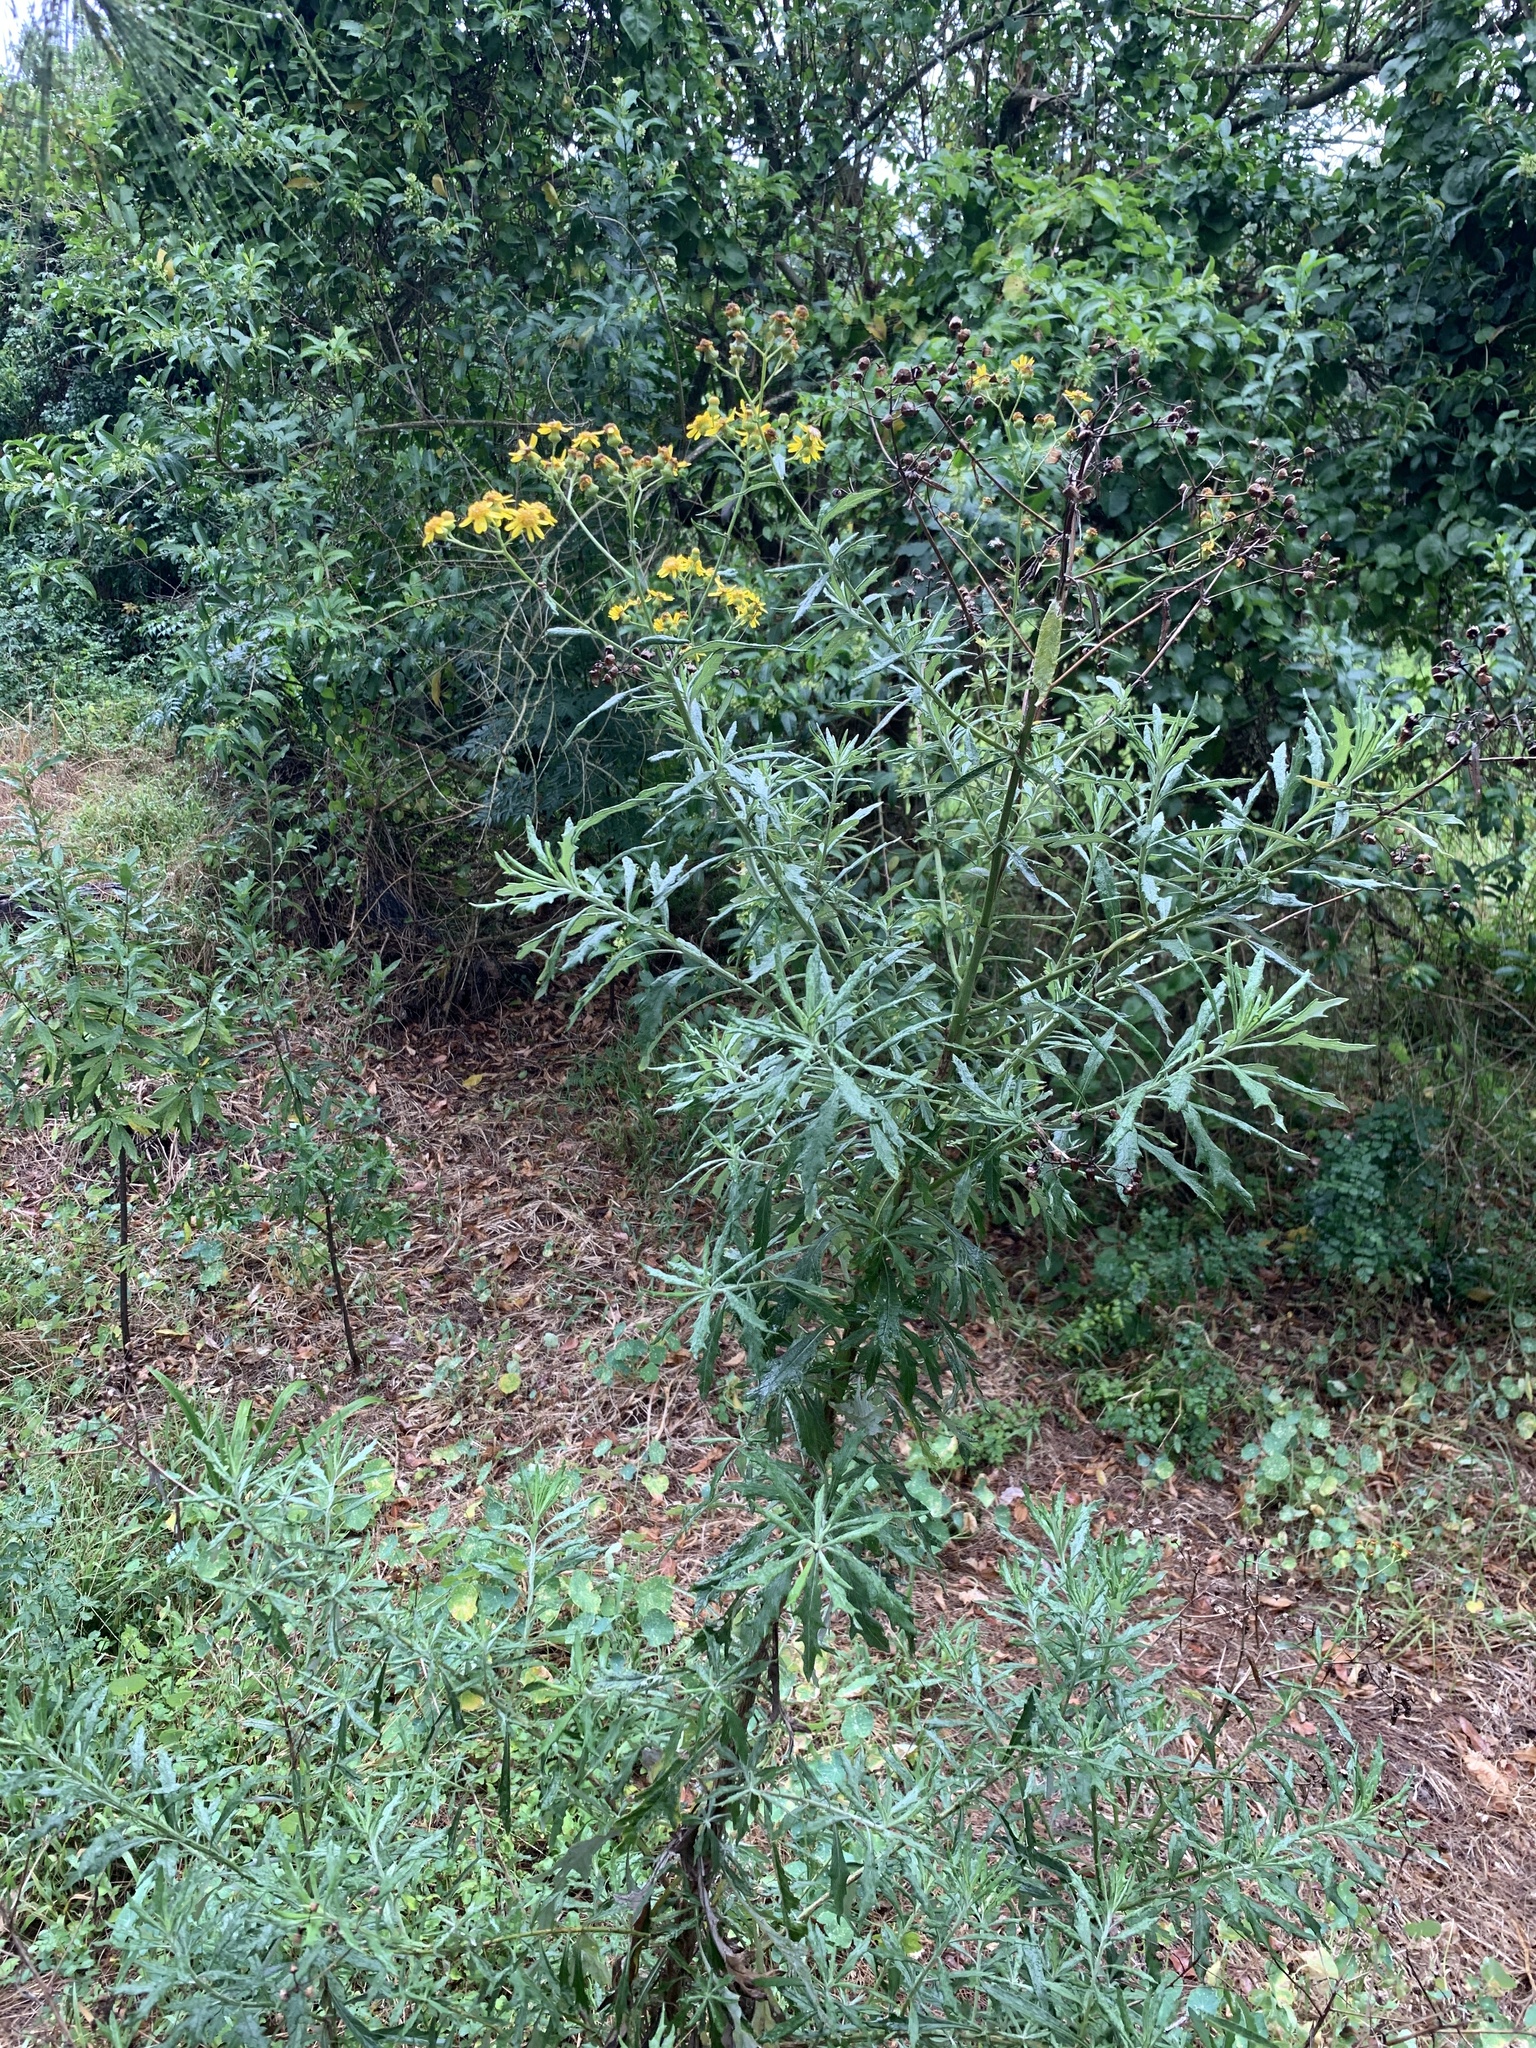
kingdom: Plantae
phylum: Tracheophyta
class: Magnoliopsida
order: Asterales
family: Asteraceae
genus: Senecio
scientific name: Senecio pterophorus
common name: Shoddy ragwort
